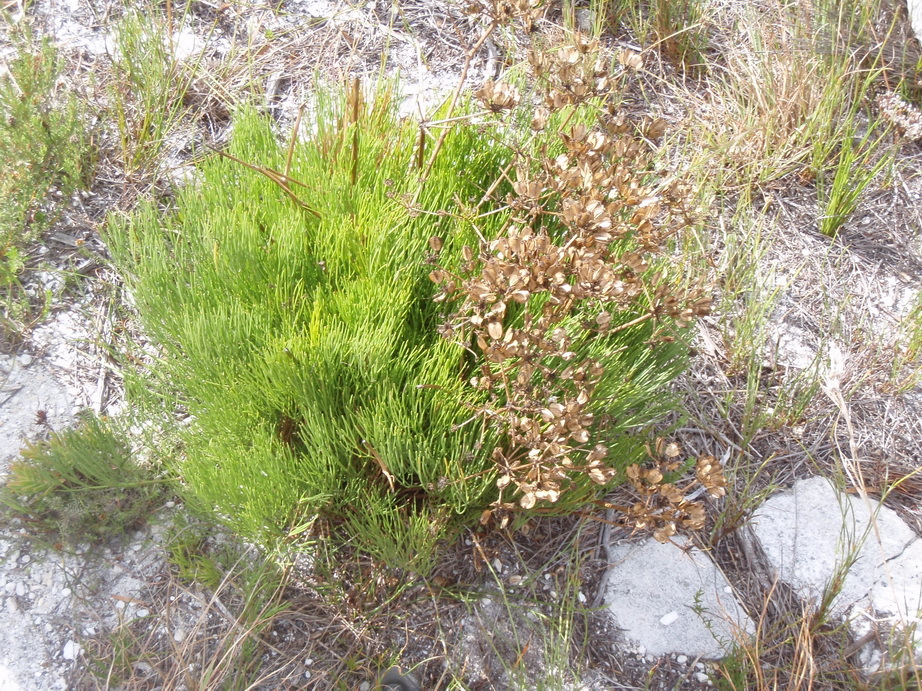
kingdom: Plantae
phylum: Tracheophyta
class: Magnoliopsida
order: Apiales
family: Apiaceae
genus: Nanobubon
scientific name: Nanobubon strictum
